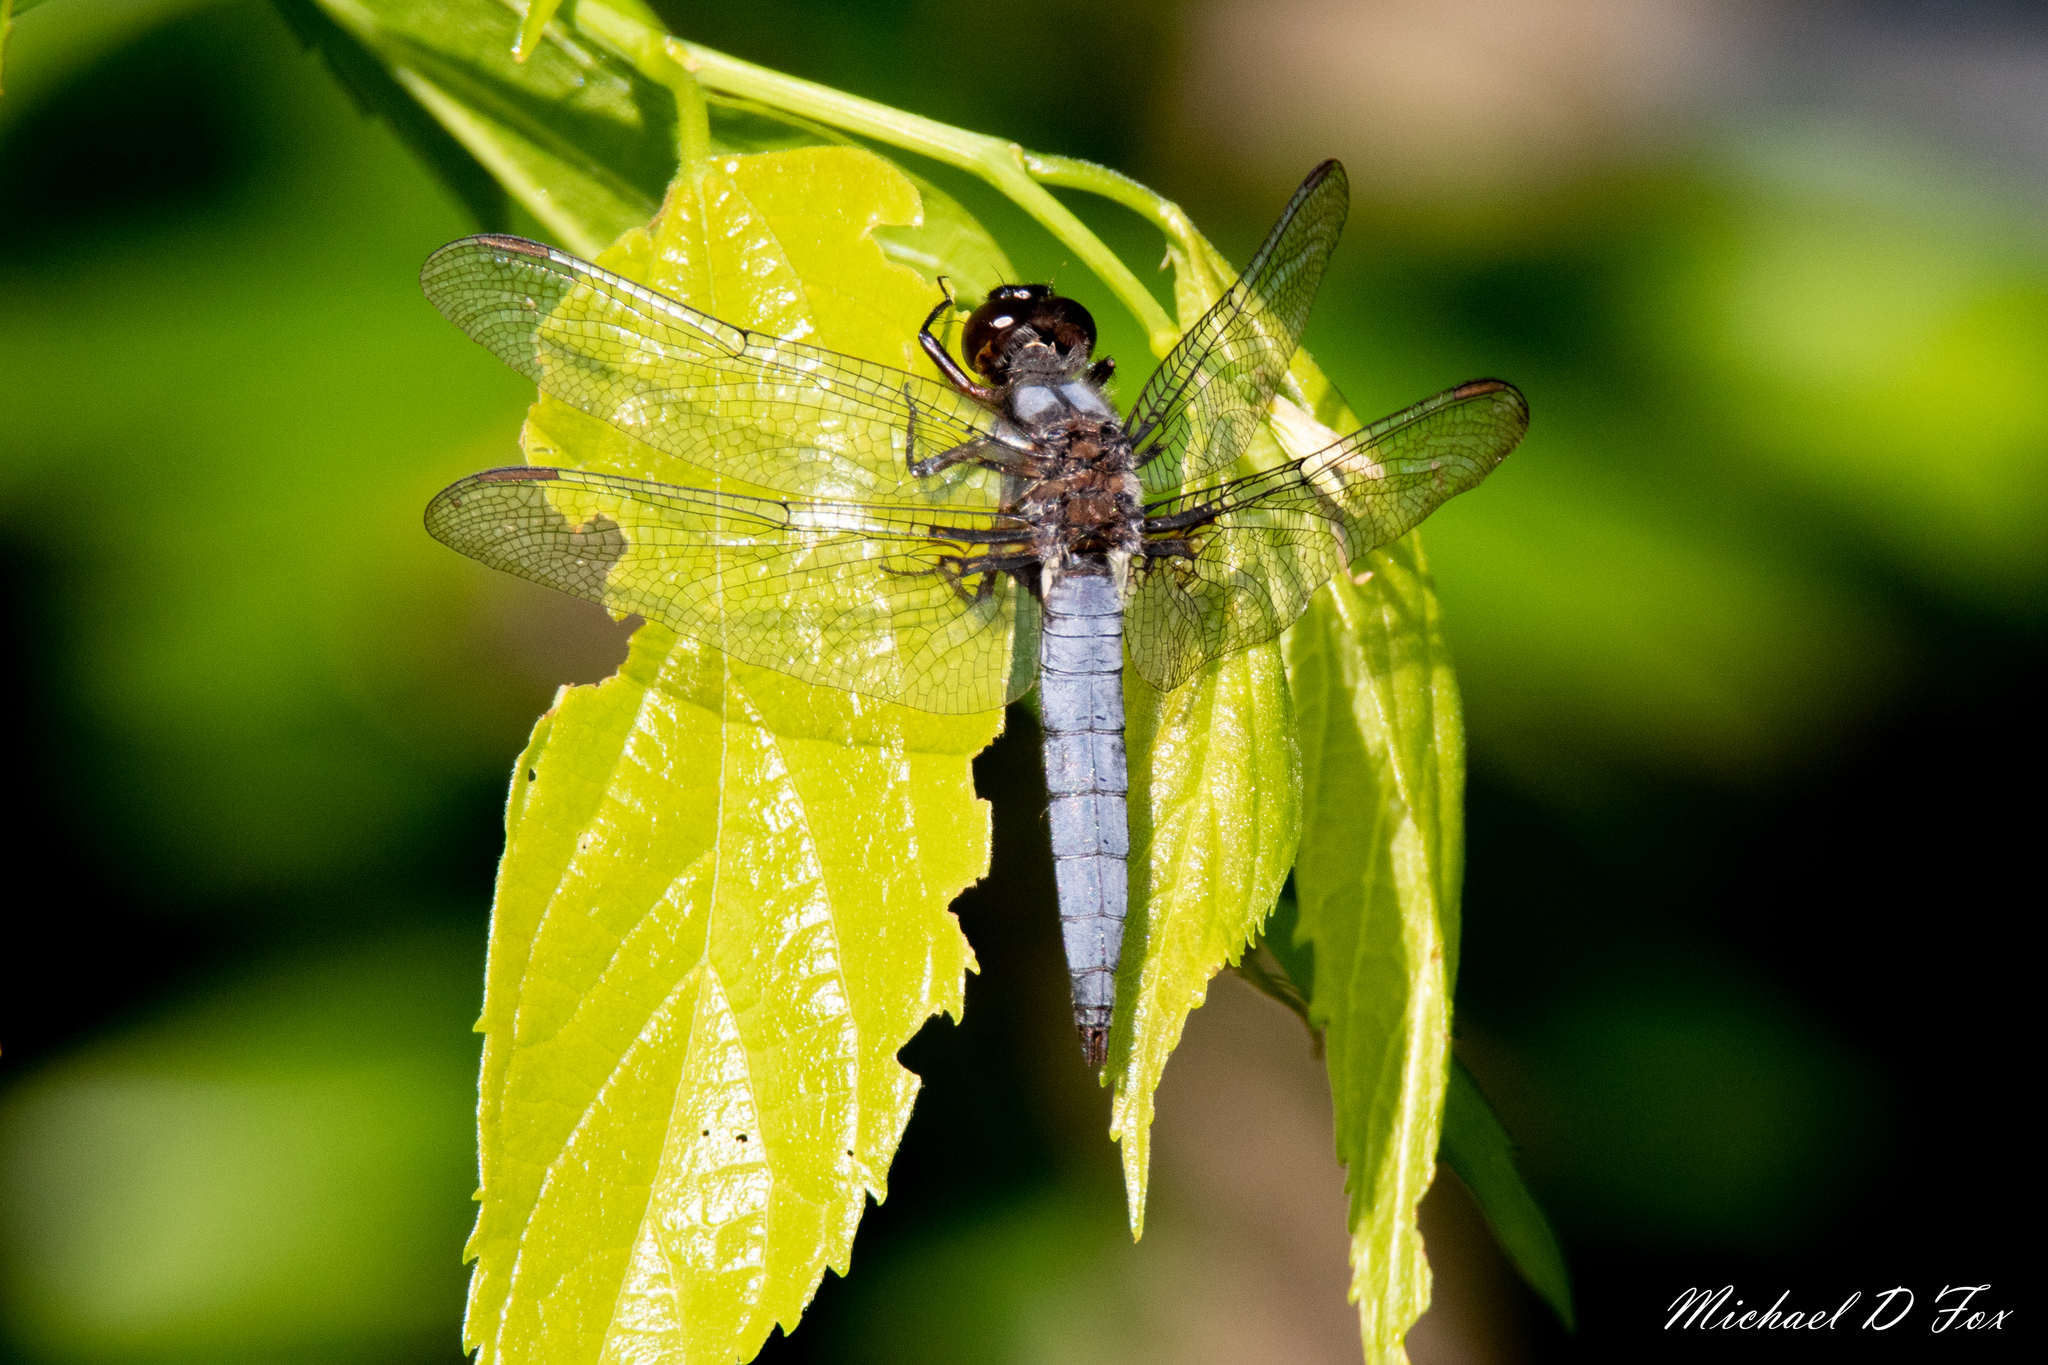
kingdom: Animalia
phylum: Arthropoda
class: Insecta
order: Odonata
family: Libellulidae
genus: Ladona
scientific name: Ladona deplanata
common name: Blue corporal
